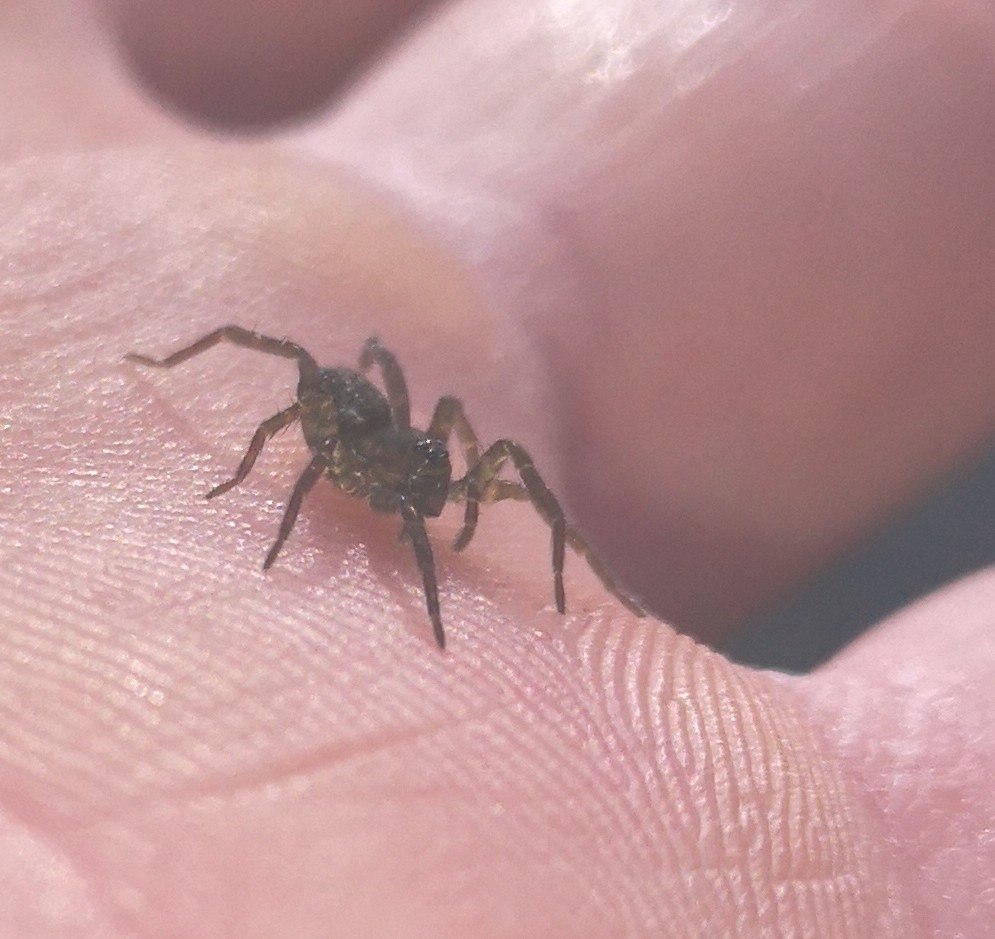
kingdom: Animalia
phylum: Arthropoda
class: Arachnida
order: Araneae
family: Lycosidae
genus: Piratula
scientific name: Piratula hygrophila
